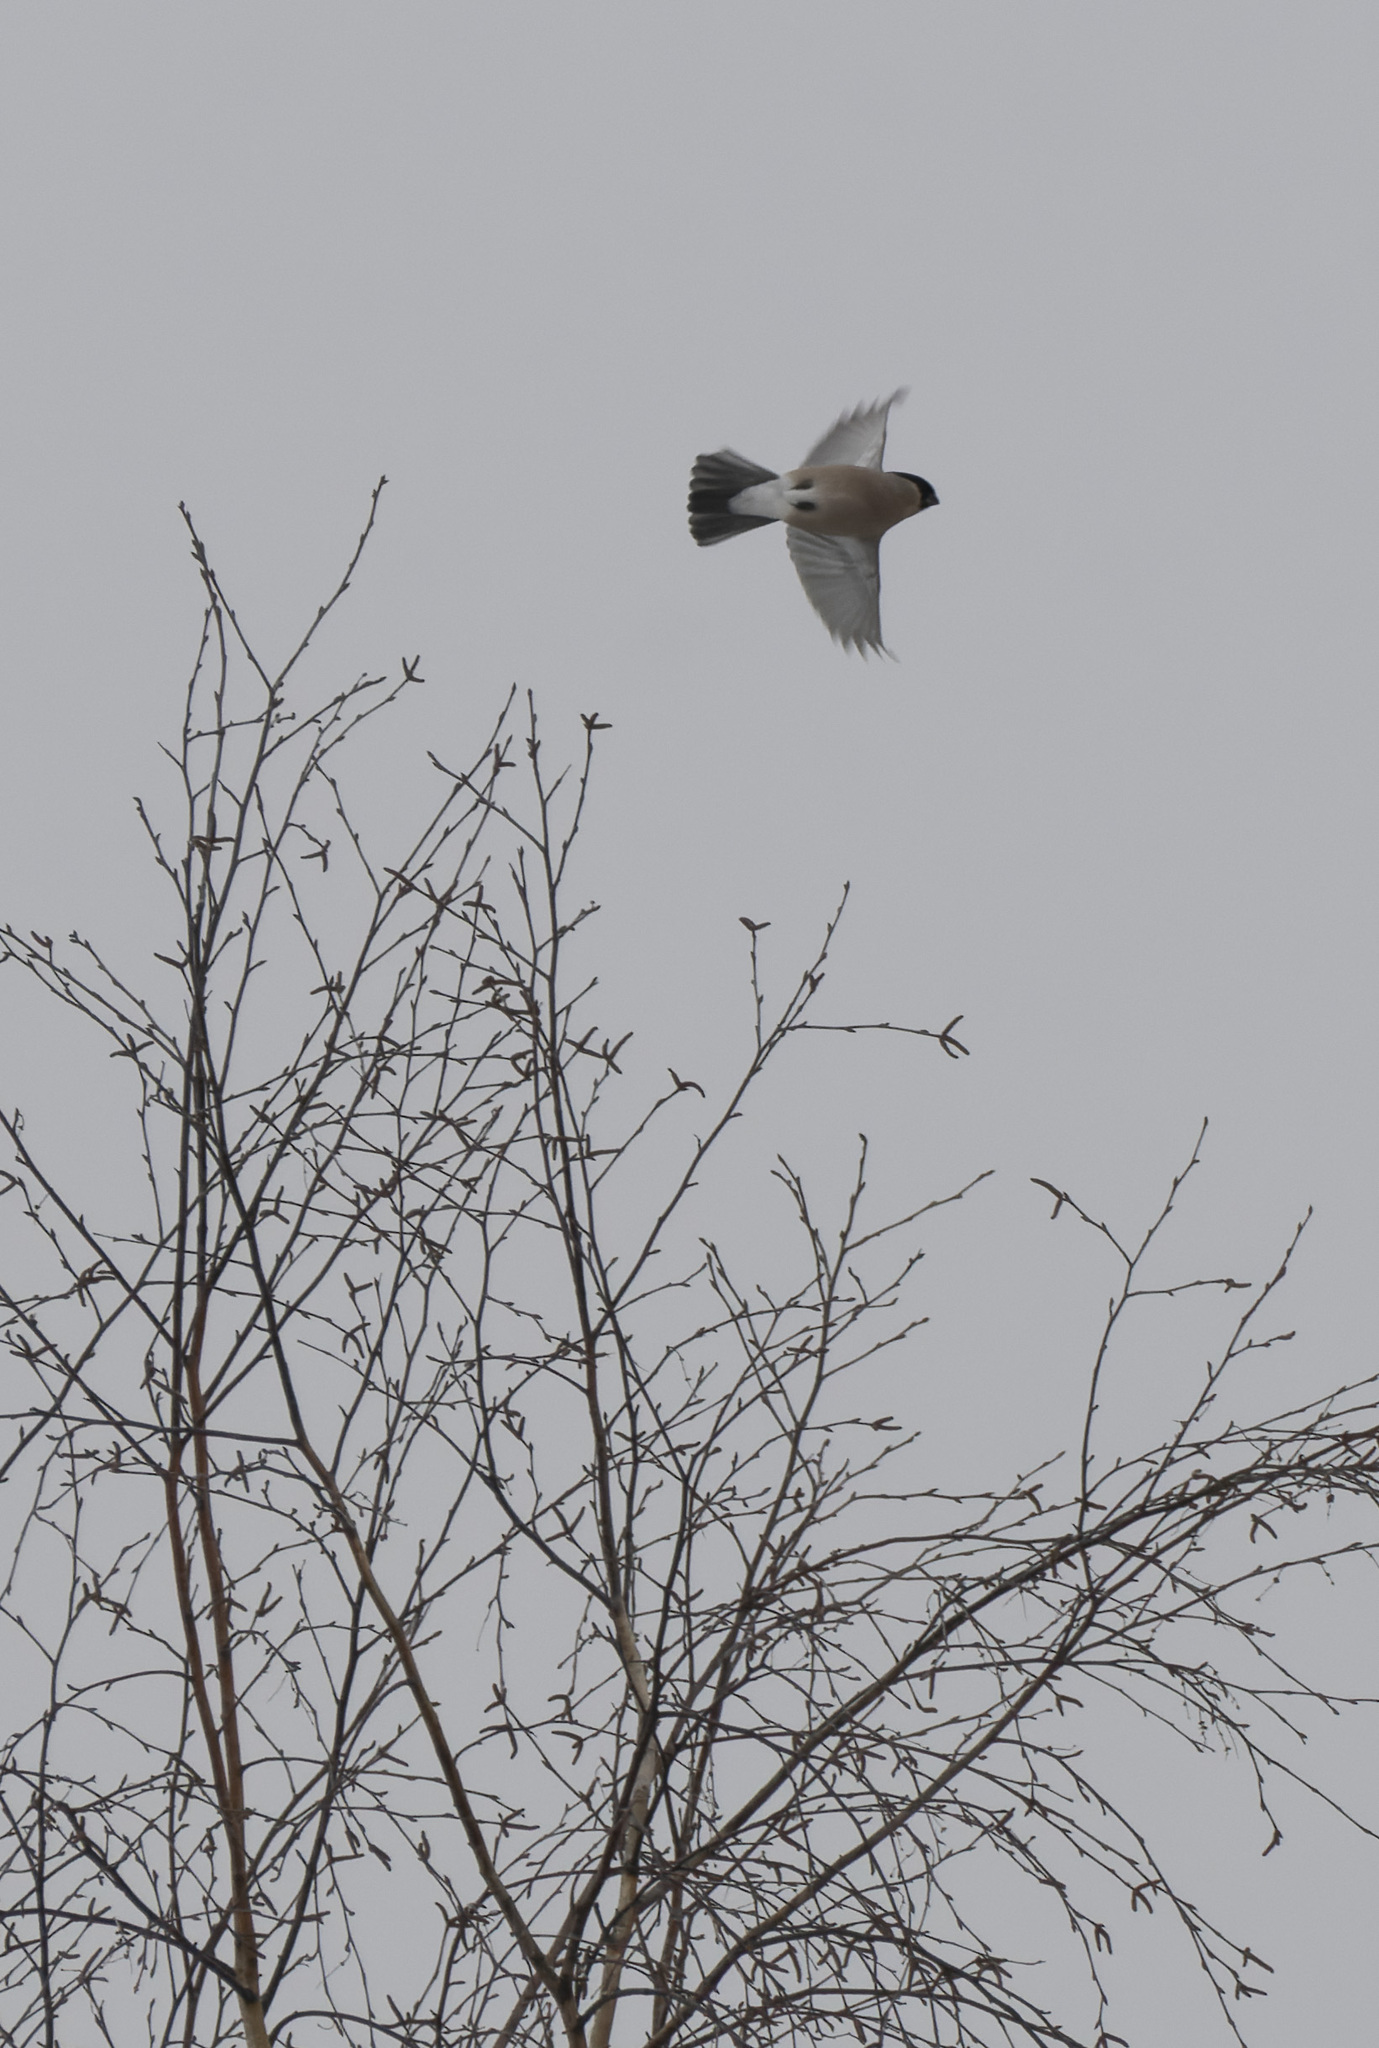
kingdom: Animalia
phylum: Chordata
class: Aves
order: Passeriformes
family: Fringillidae
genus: Pyrrhula
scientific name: Pyrrhula pyrrhula
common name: Eurasian bullfinch
